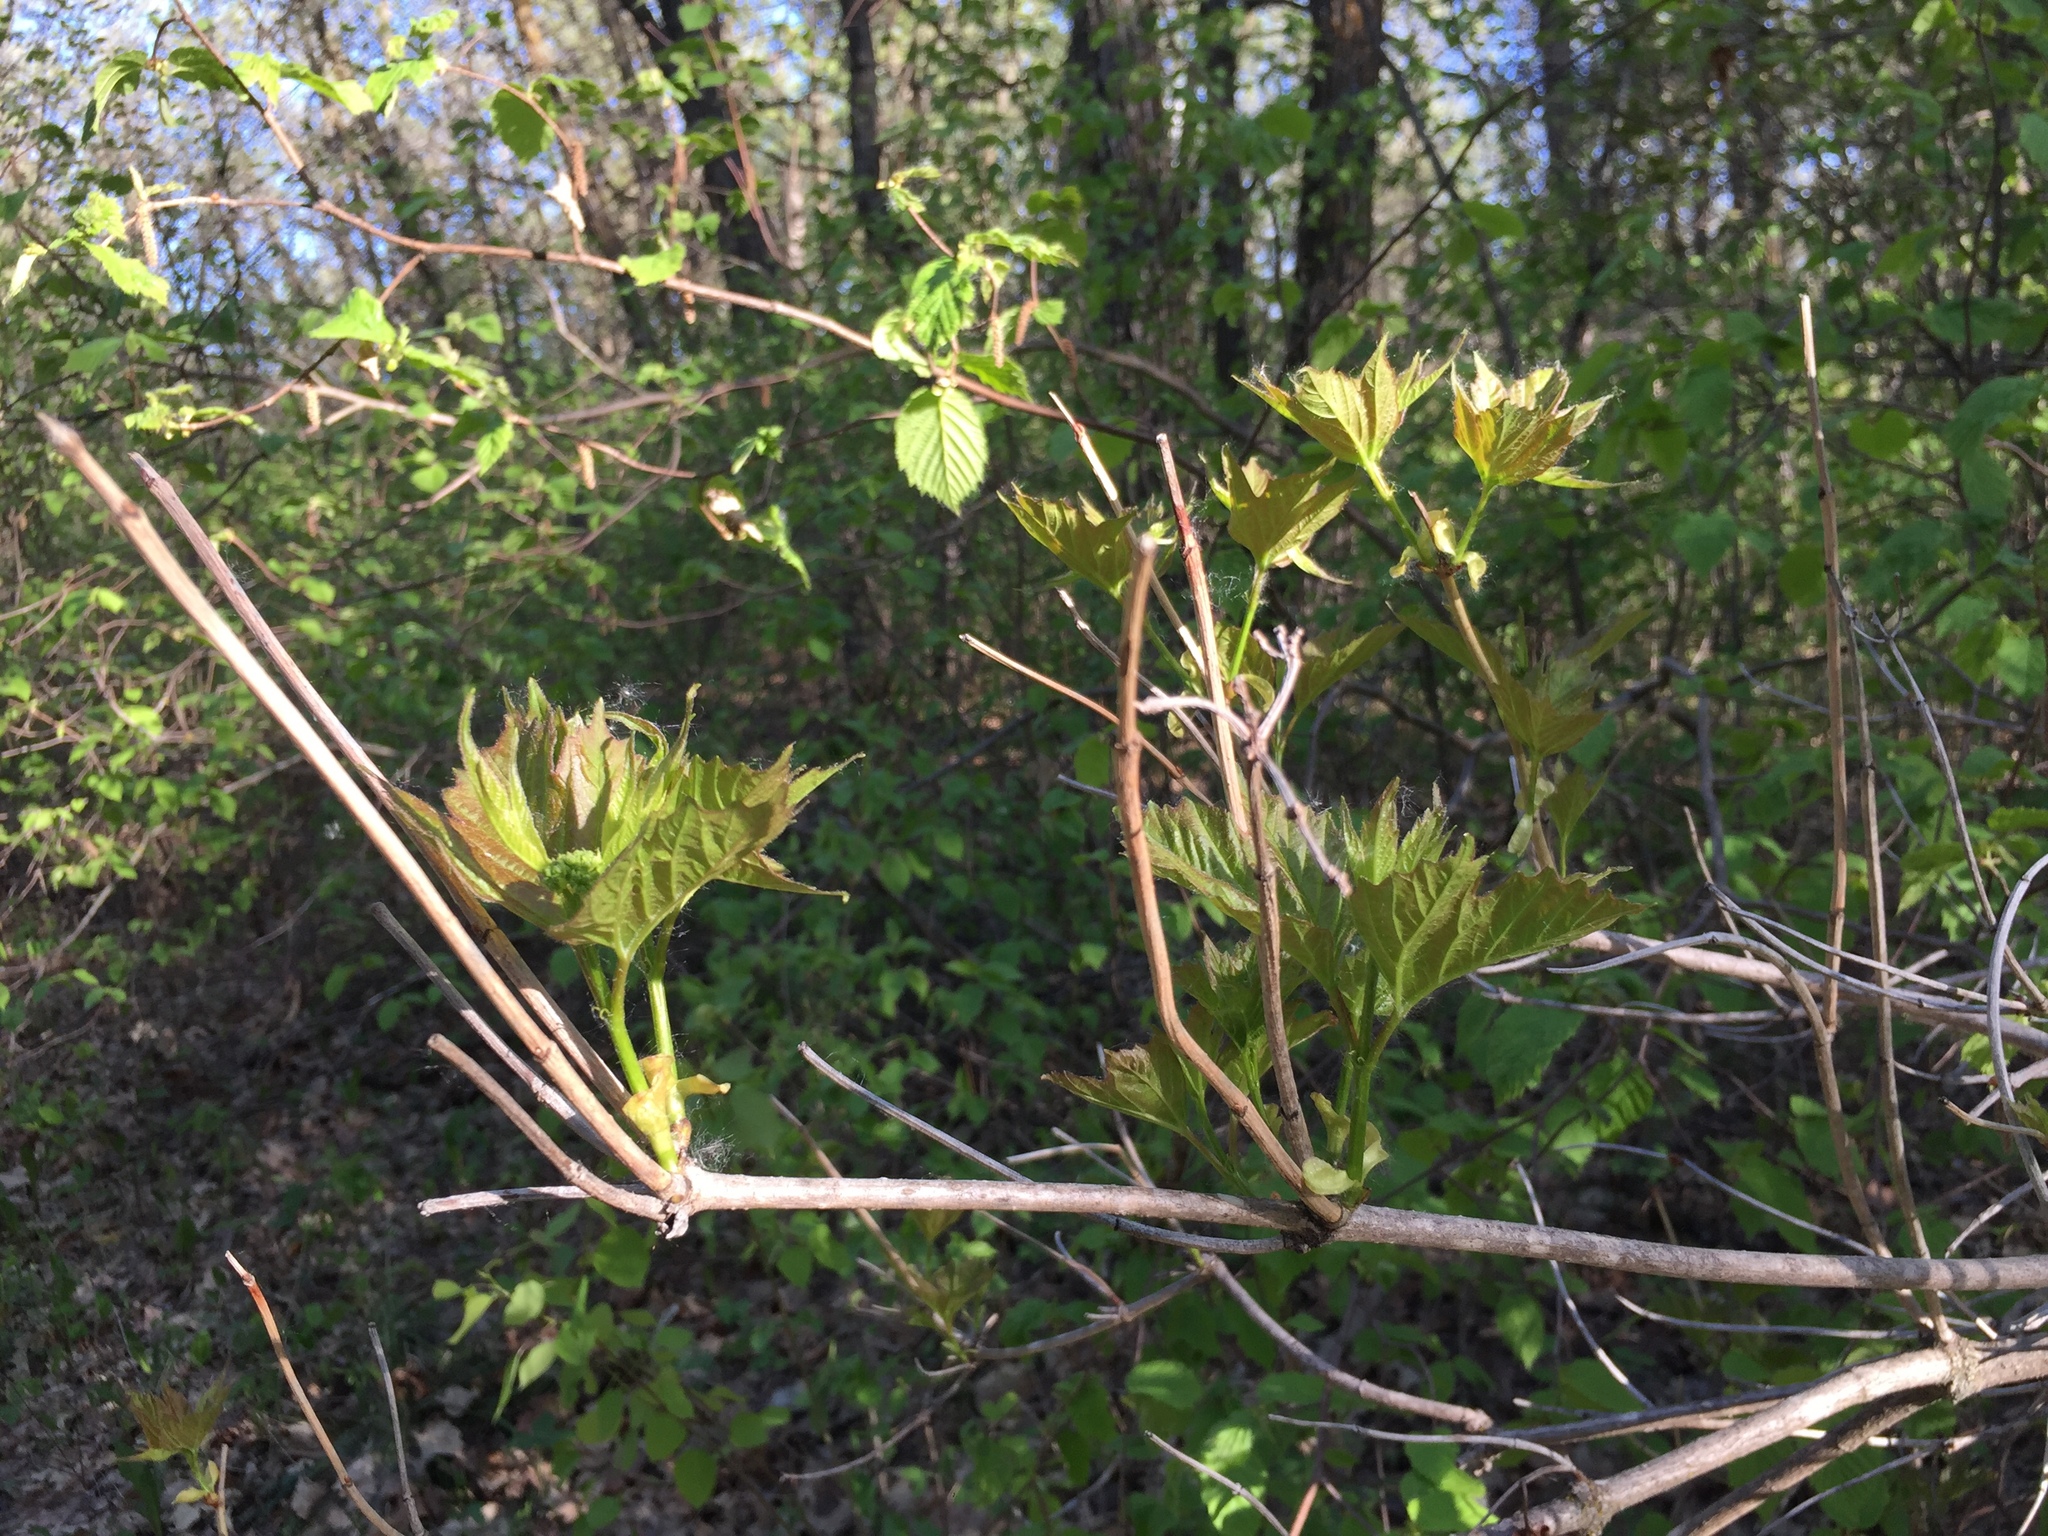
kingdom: Plantae
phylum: Tracheophyta
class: Magnoliopsida
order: Dipsacales
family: Viburnaceae
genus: Viburnum
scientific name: Viburnum opulus
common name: Guelder-rose
